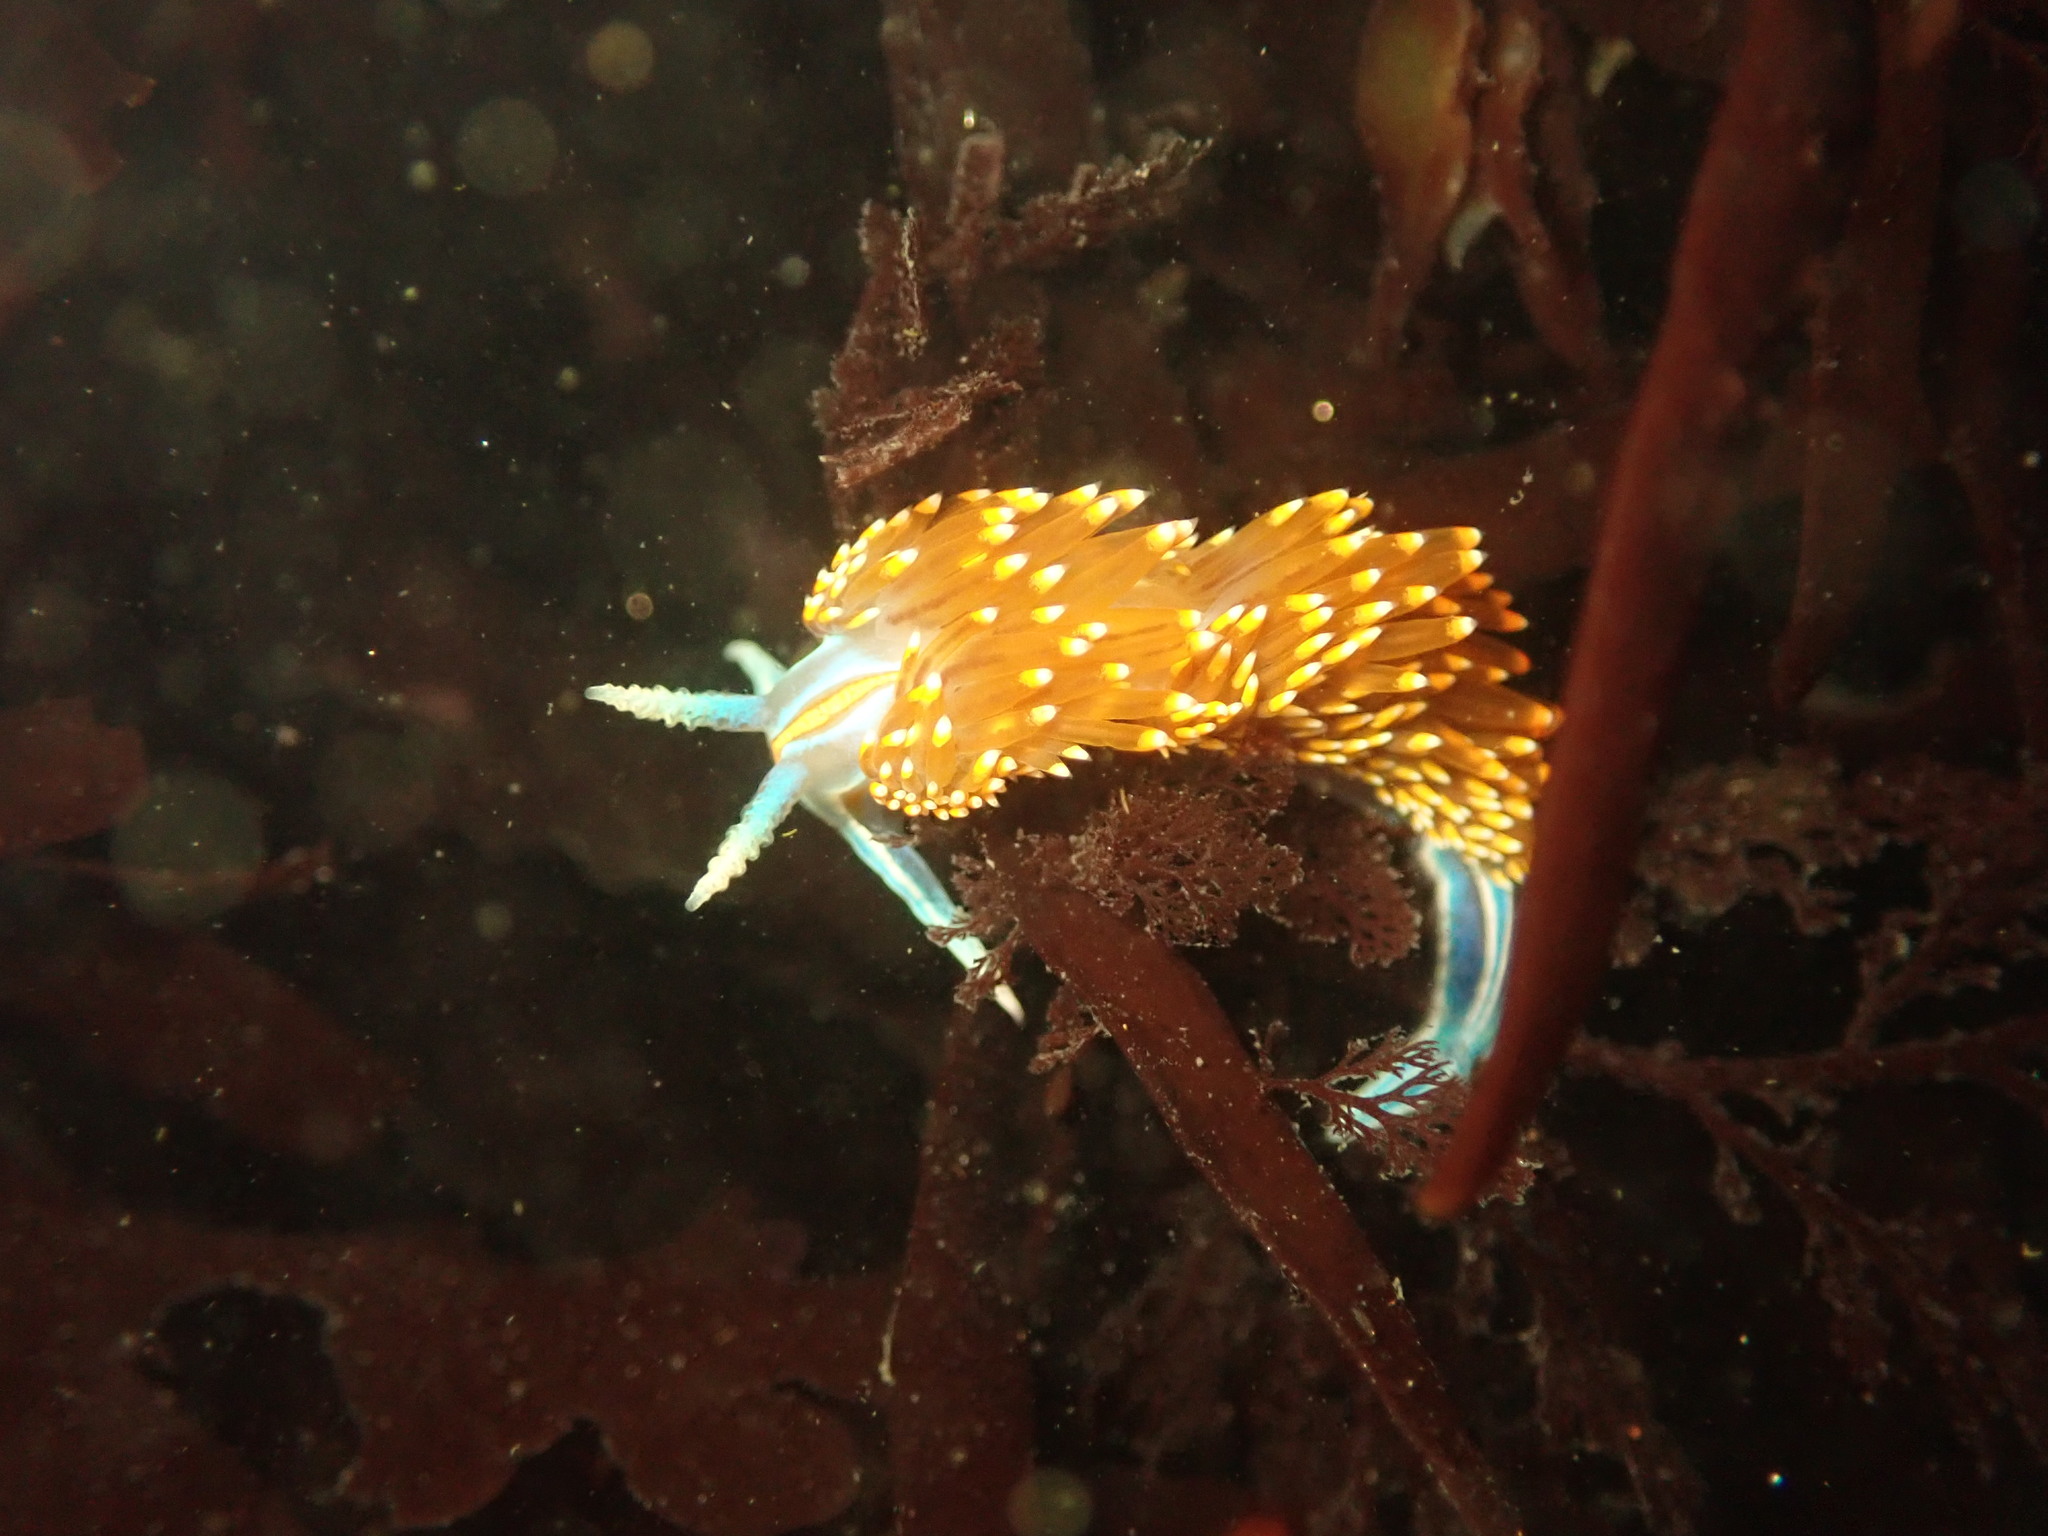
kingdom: Animalia
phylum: Mollusca
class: Gastropoda
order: Nudibranchia
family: Myrrhinidae
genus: Hermissenda
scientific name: Hermissenda opalescens
